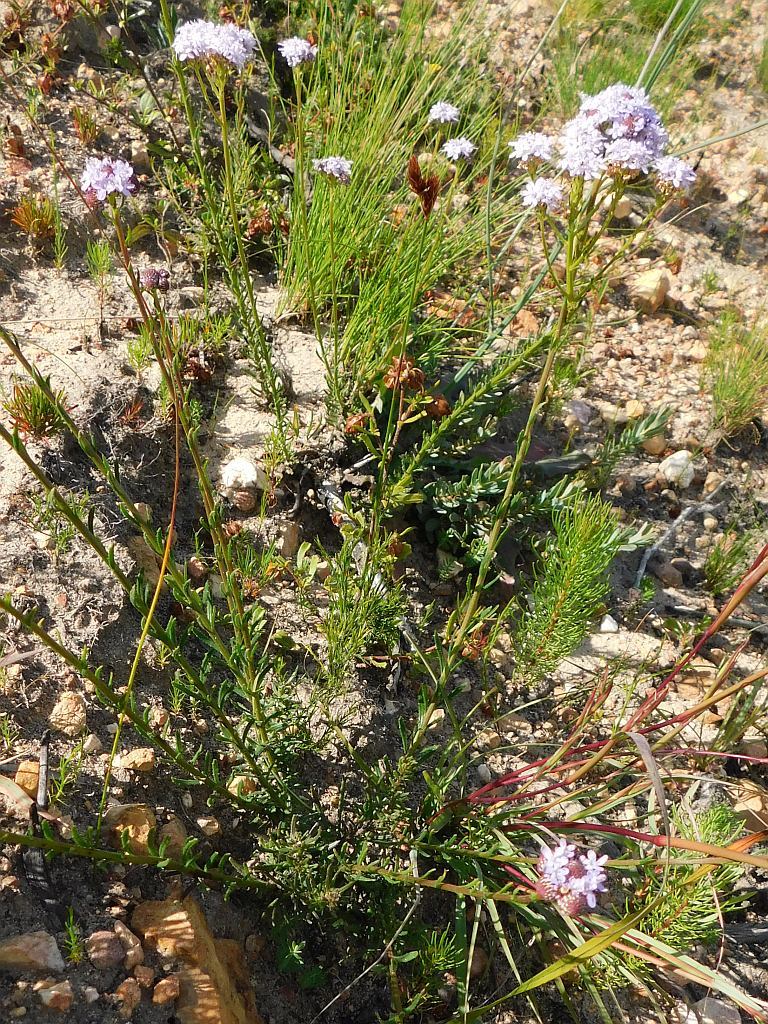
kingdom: Plantae
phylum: Tracheophyta
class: Magnoliopsida
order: Lamiales
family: Scrophulariaceae
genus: Pseudoselago
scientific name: Pseudoselago spuria
